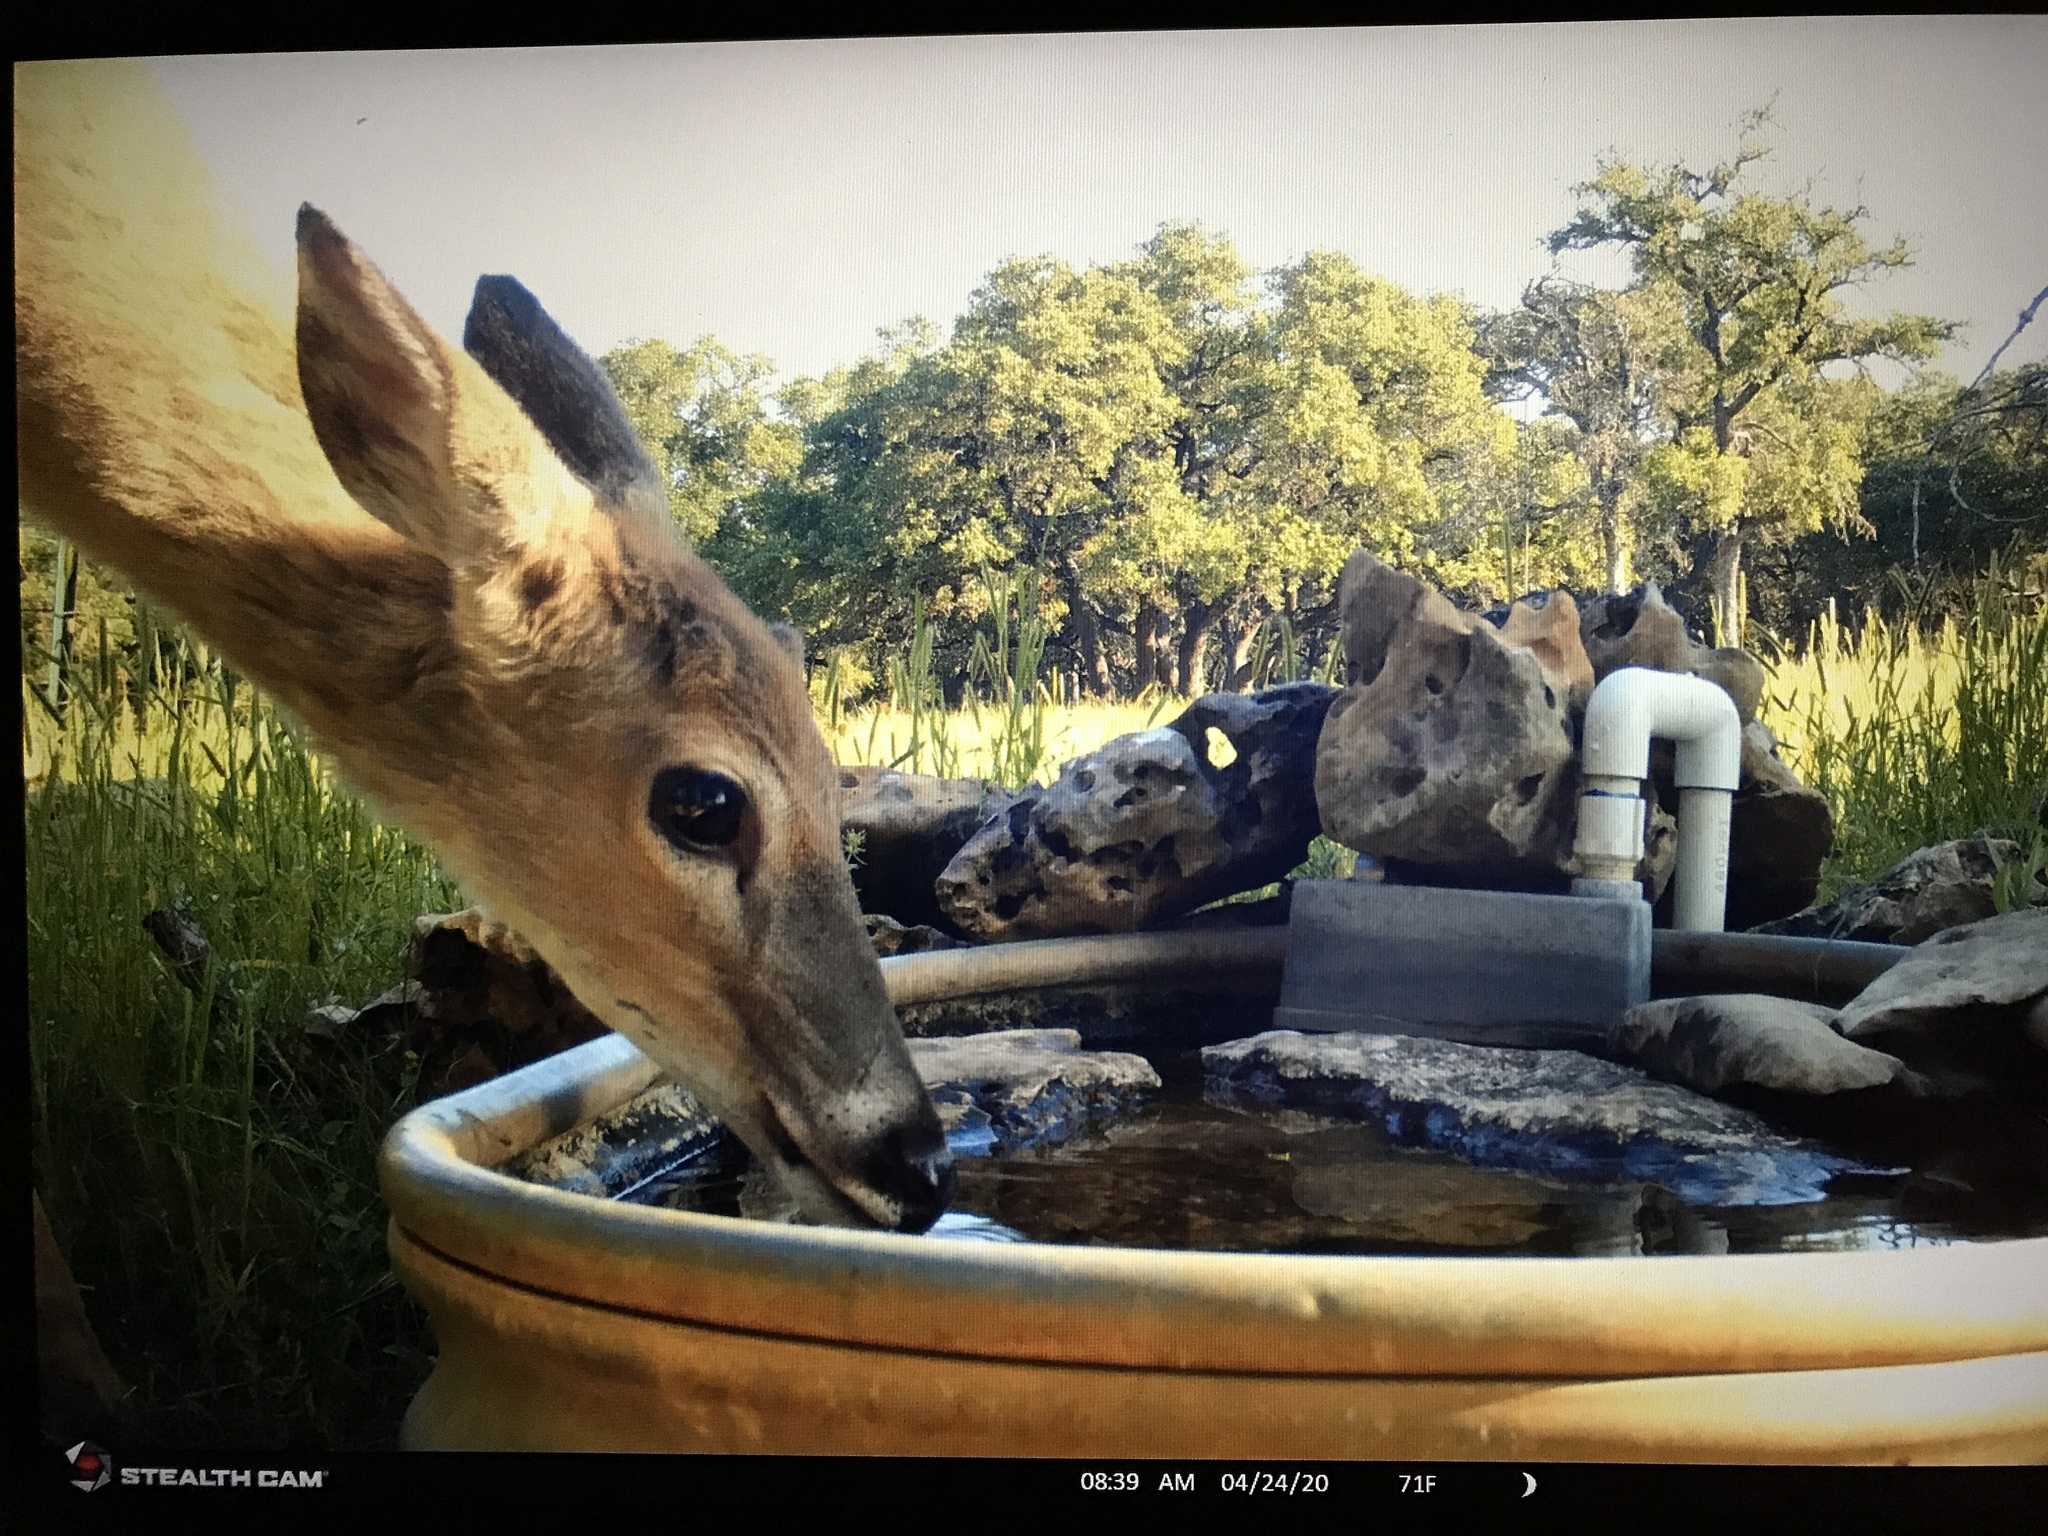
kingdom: Animalia
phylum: Chordata
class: Mammalia
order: Artiodactyla
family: Cervidae
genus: Odocoileus
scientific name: Odocoileus virginianus
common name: White-tailed deer
